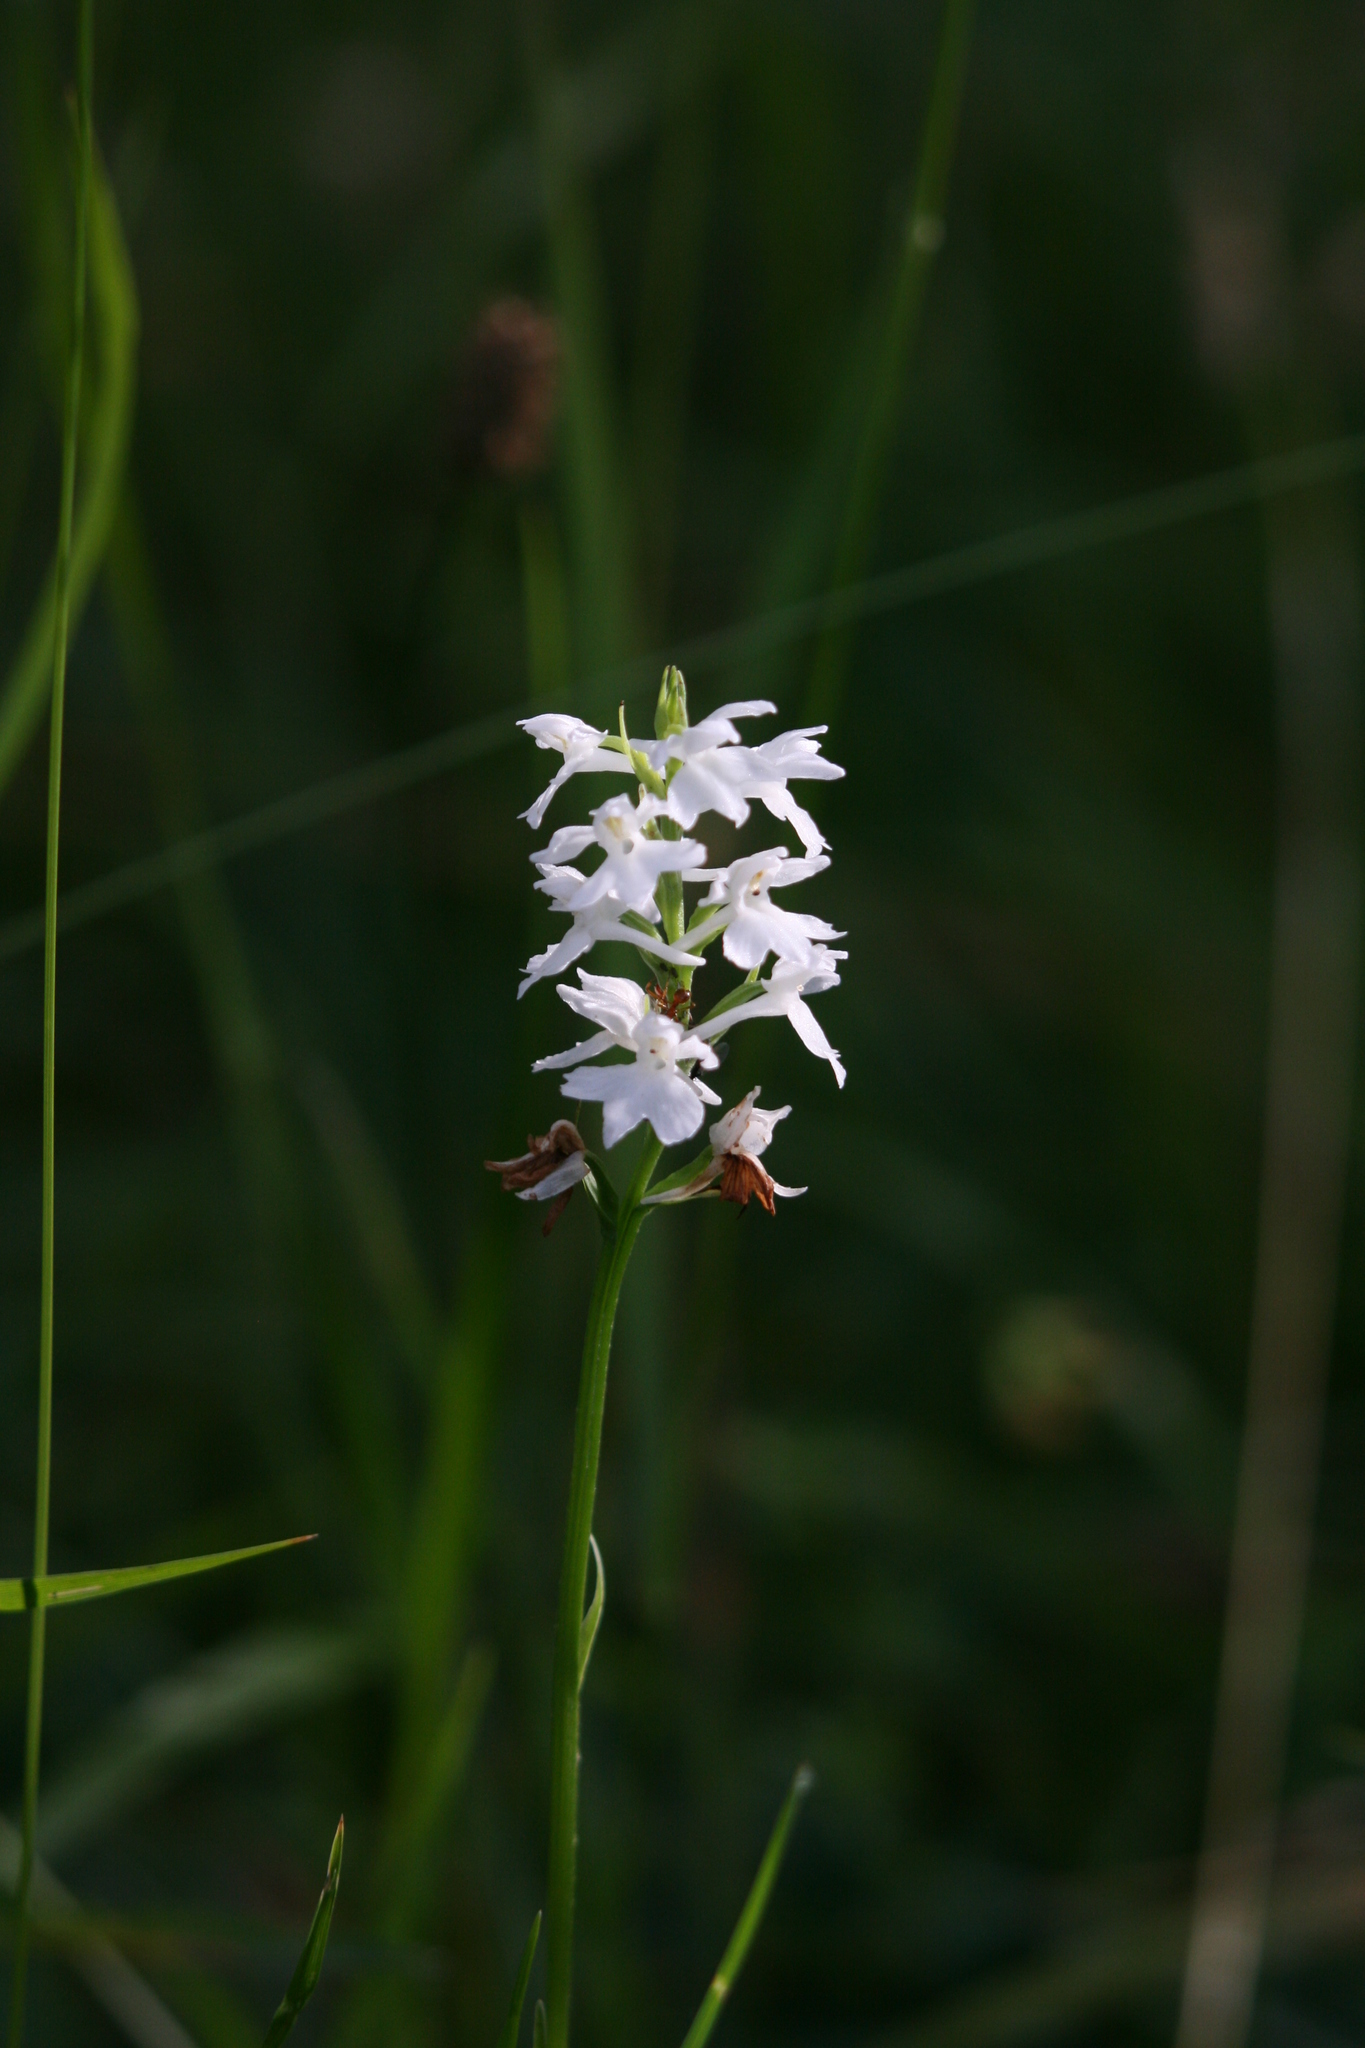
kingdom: Plantae
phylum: Tracheophyta
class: Liliopsida
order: Asparagales
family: Orchidaceae
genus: Dactylorhiza
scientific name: Dactylorhiza maculata
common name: Heath spotted-orchid
